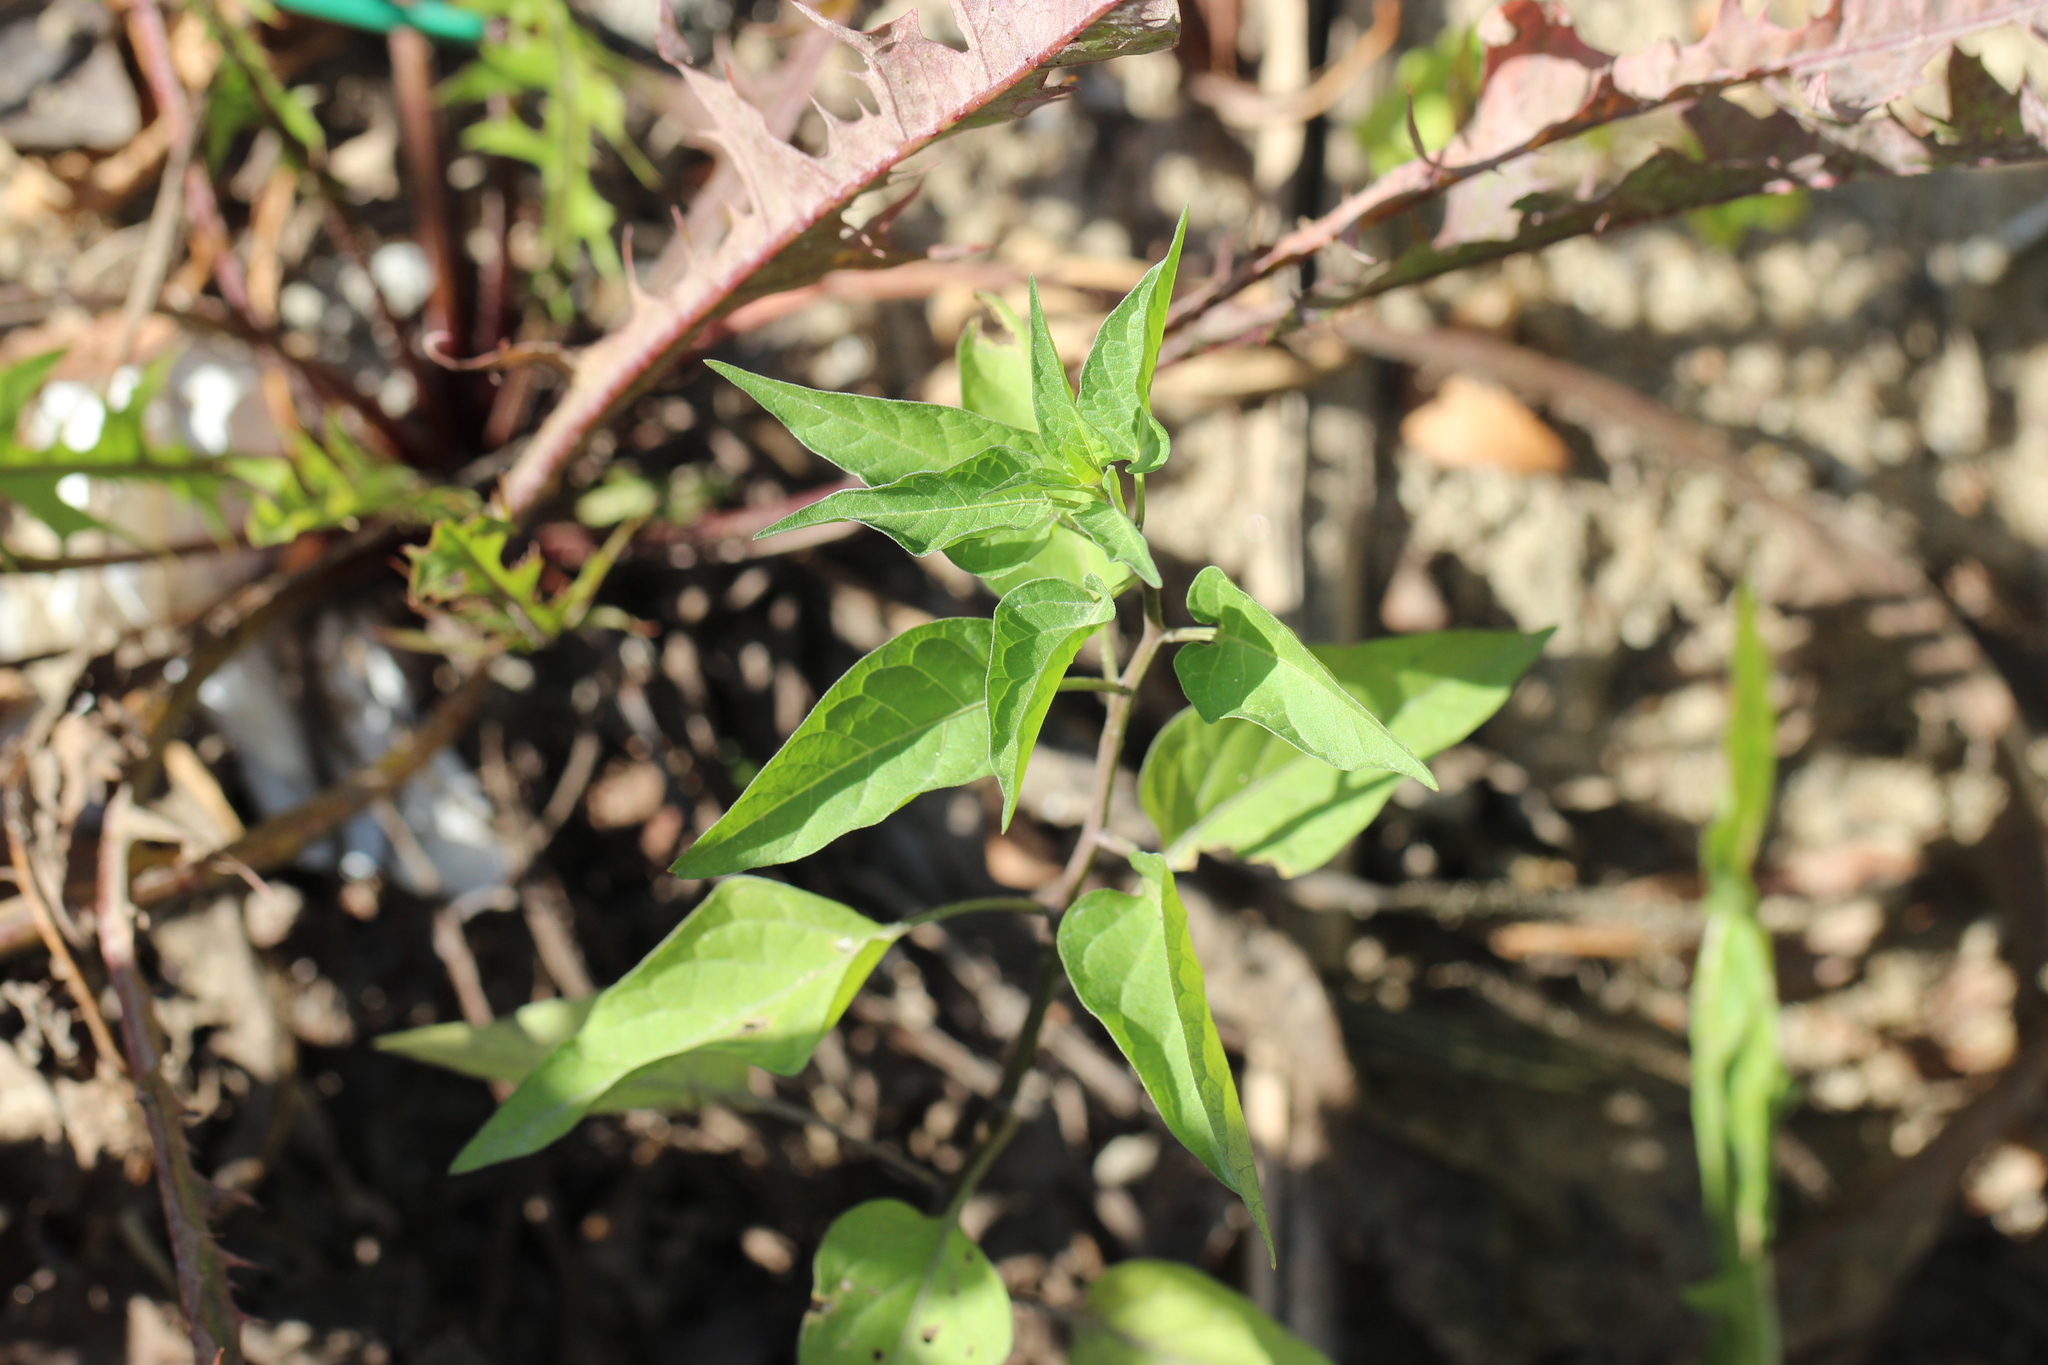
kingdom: Plantae
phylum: Tracheophyta
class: Magnoliopsida
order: Solanales
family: Solanaceae
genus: Solanum
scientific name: Solanum dulcamara
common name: Climbing nightshade
